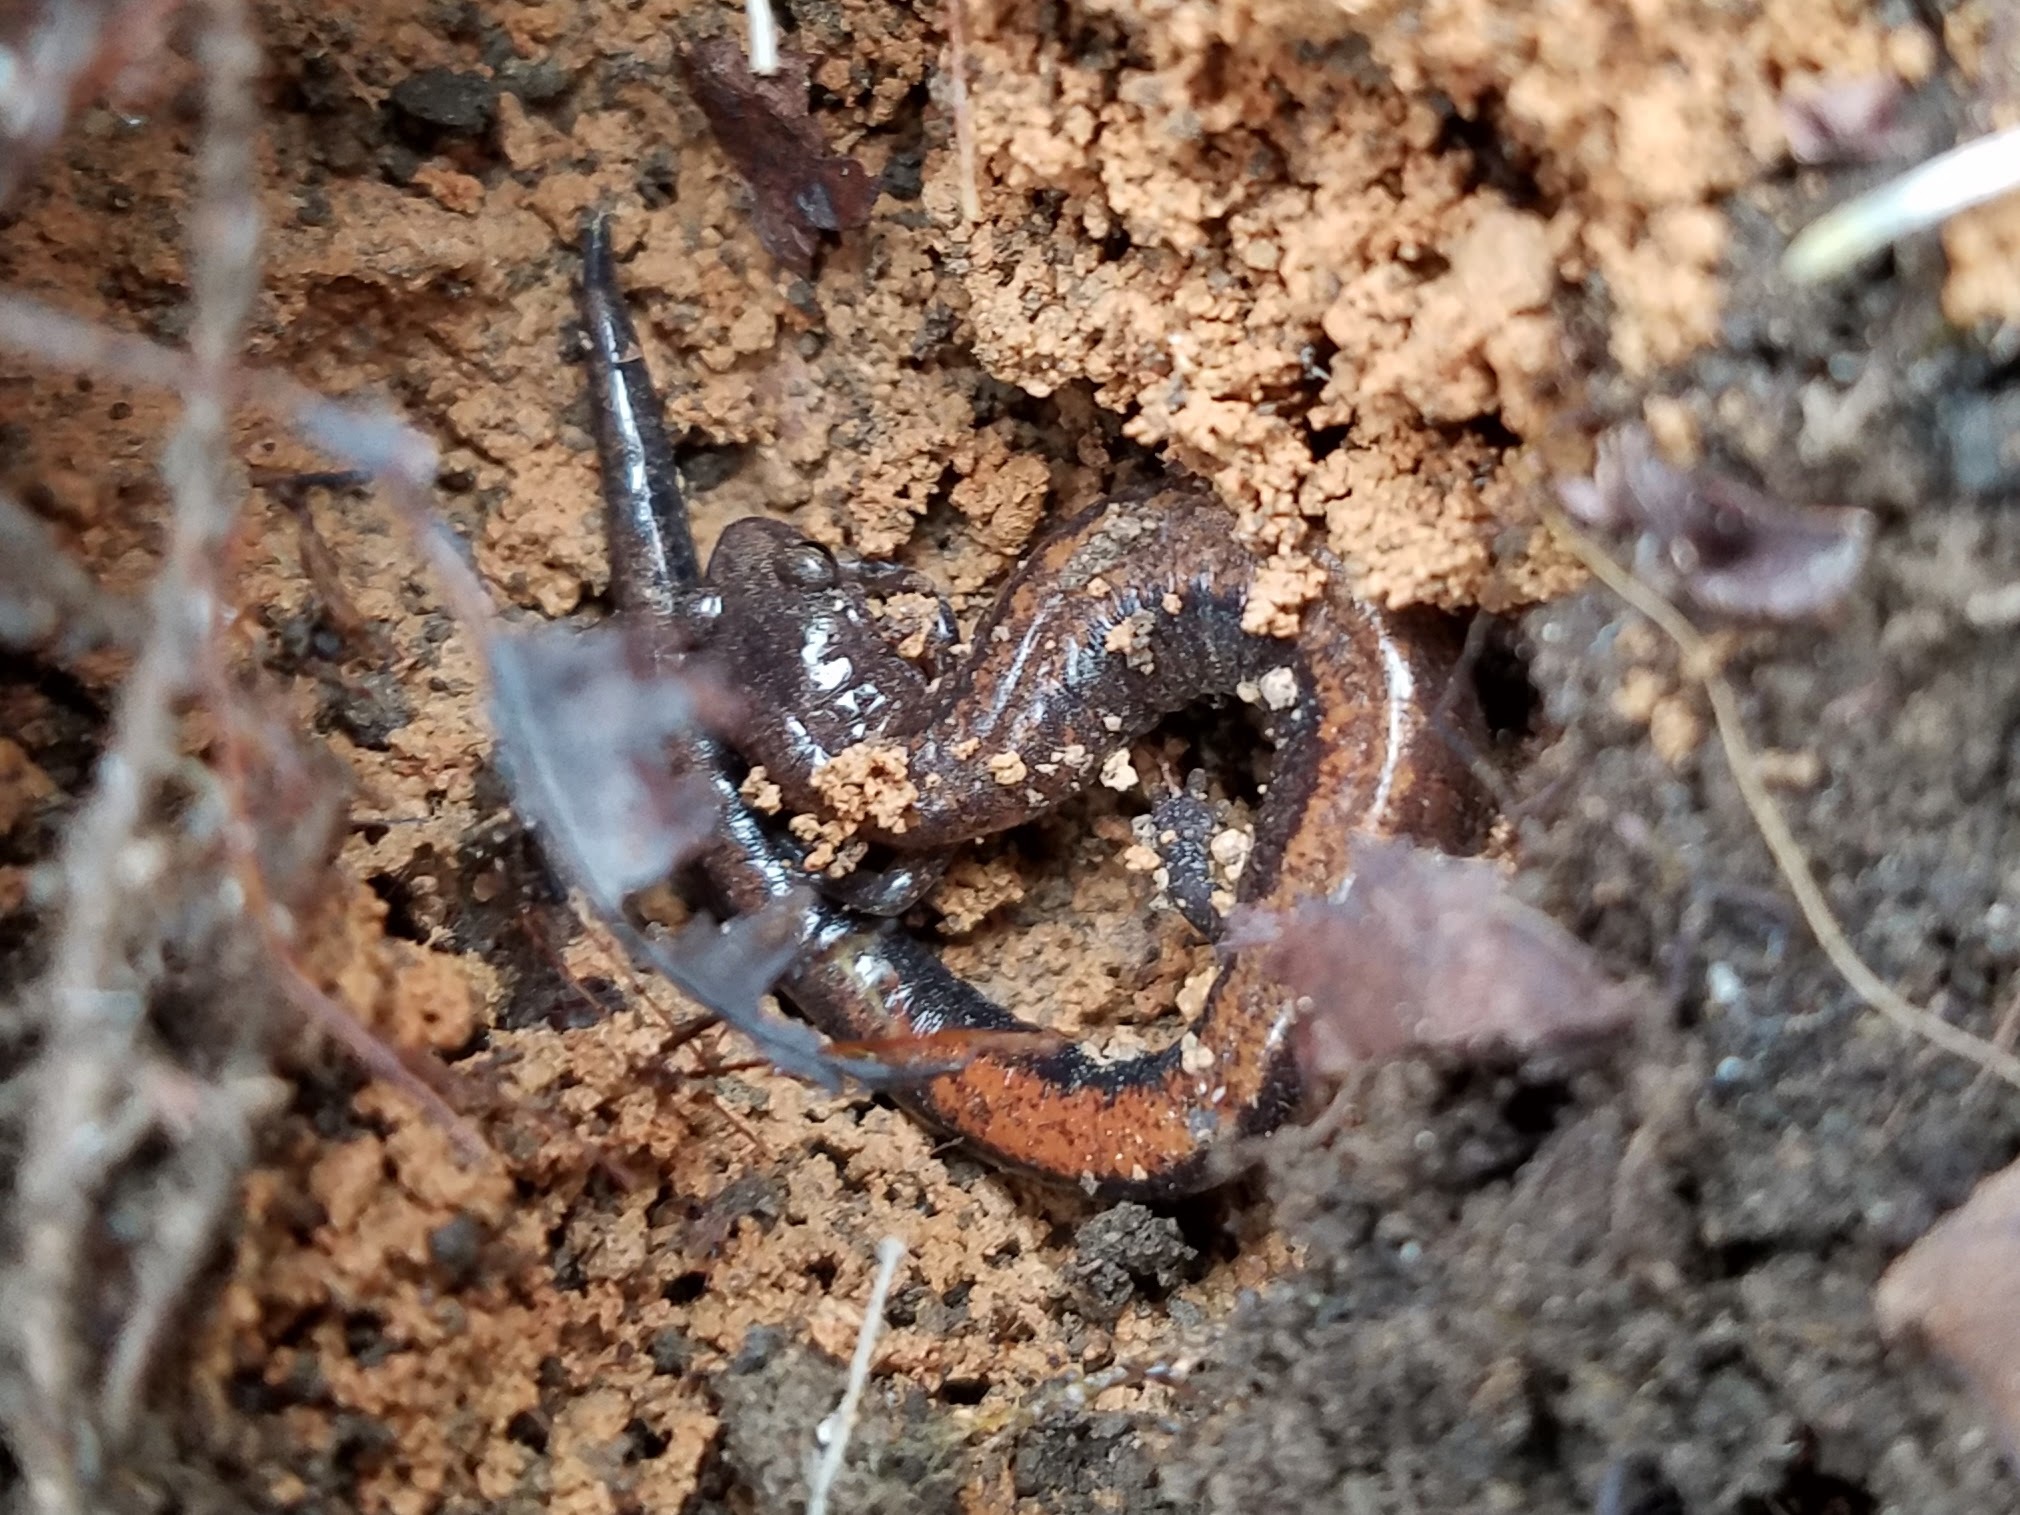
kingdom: Animalia
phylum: Chordata
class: Amphibia
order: Caudata
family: Plethodontidae
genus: Plethodon
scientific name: Plethodon serratus
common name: Southern red-backed salamander
